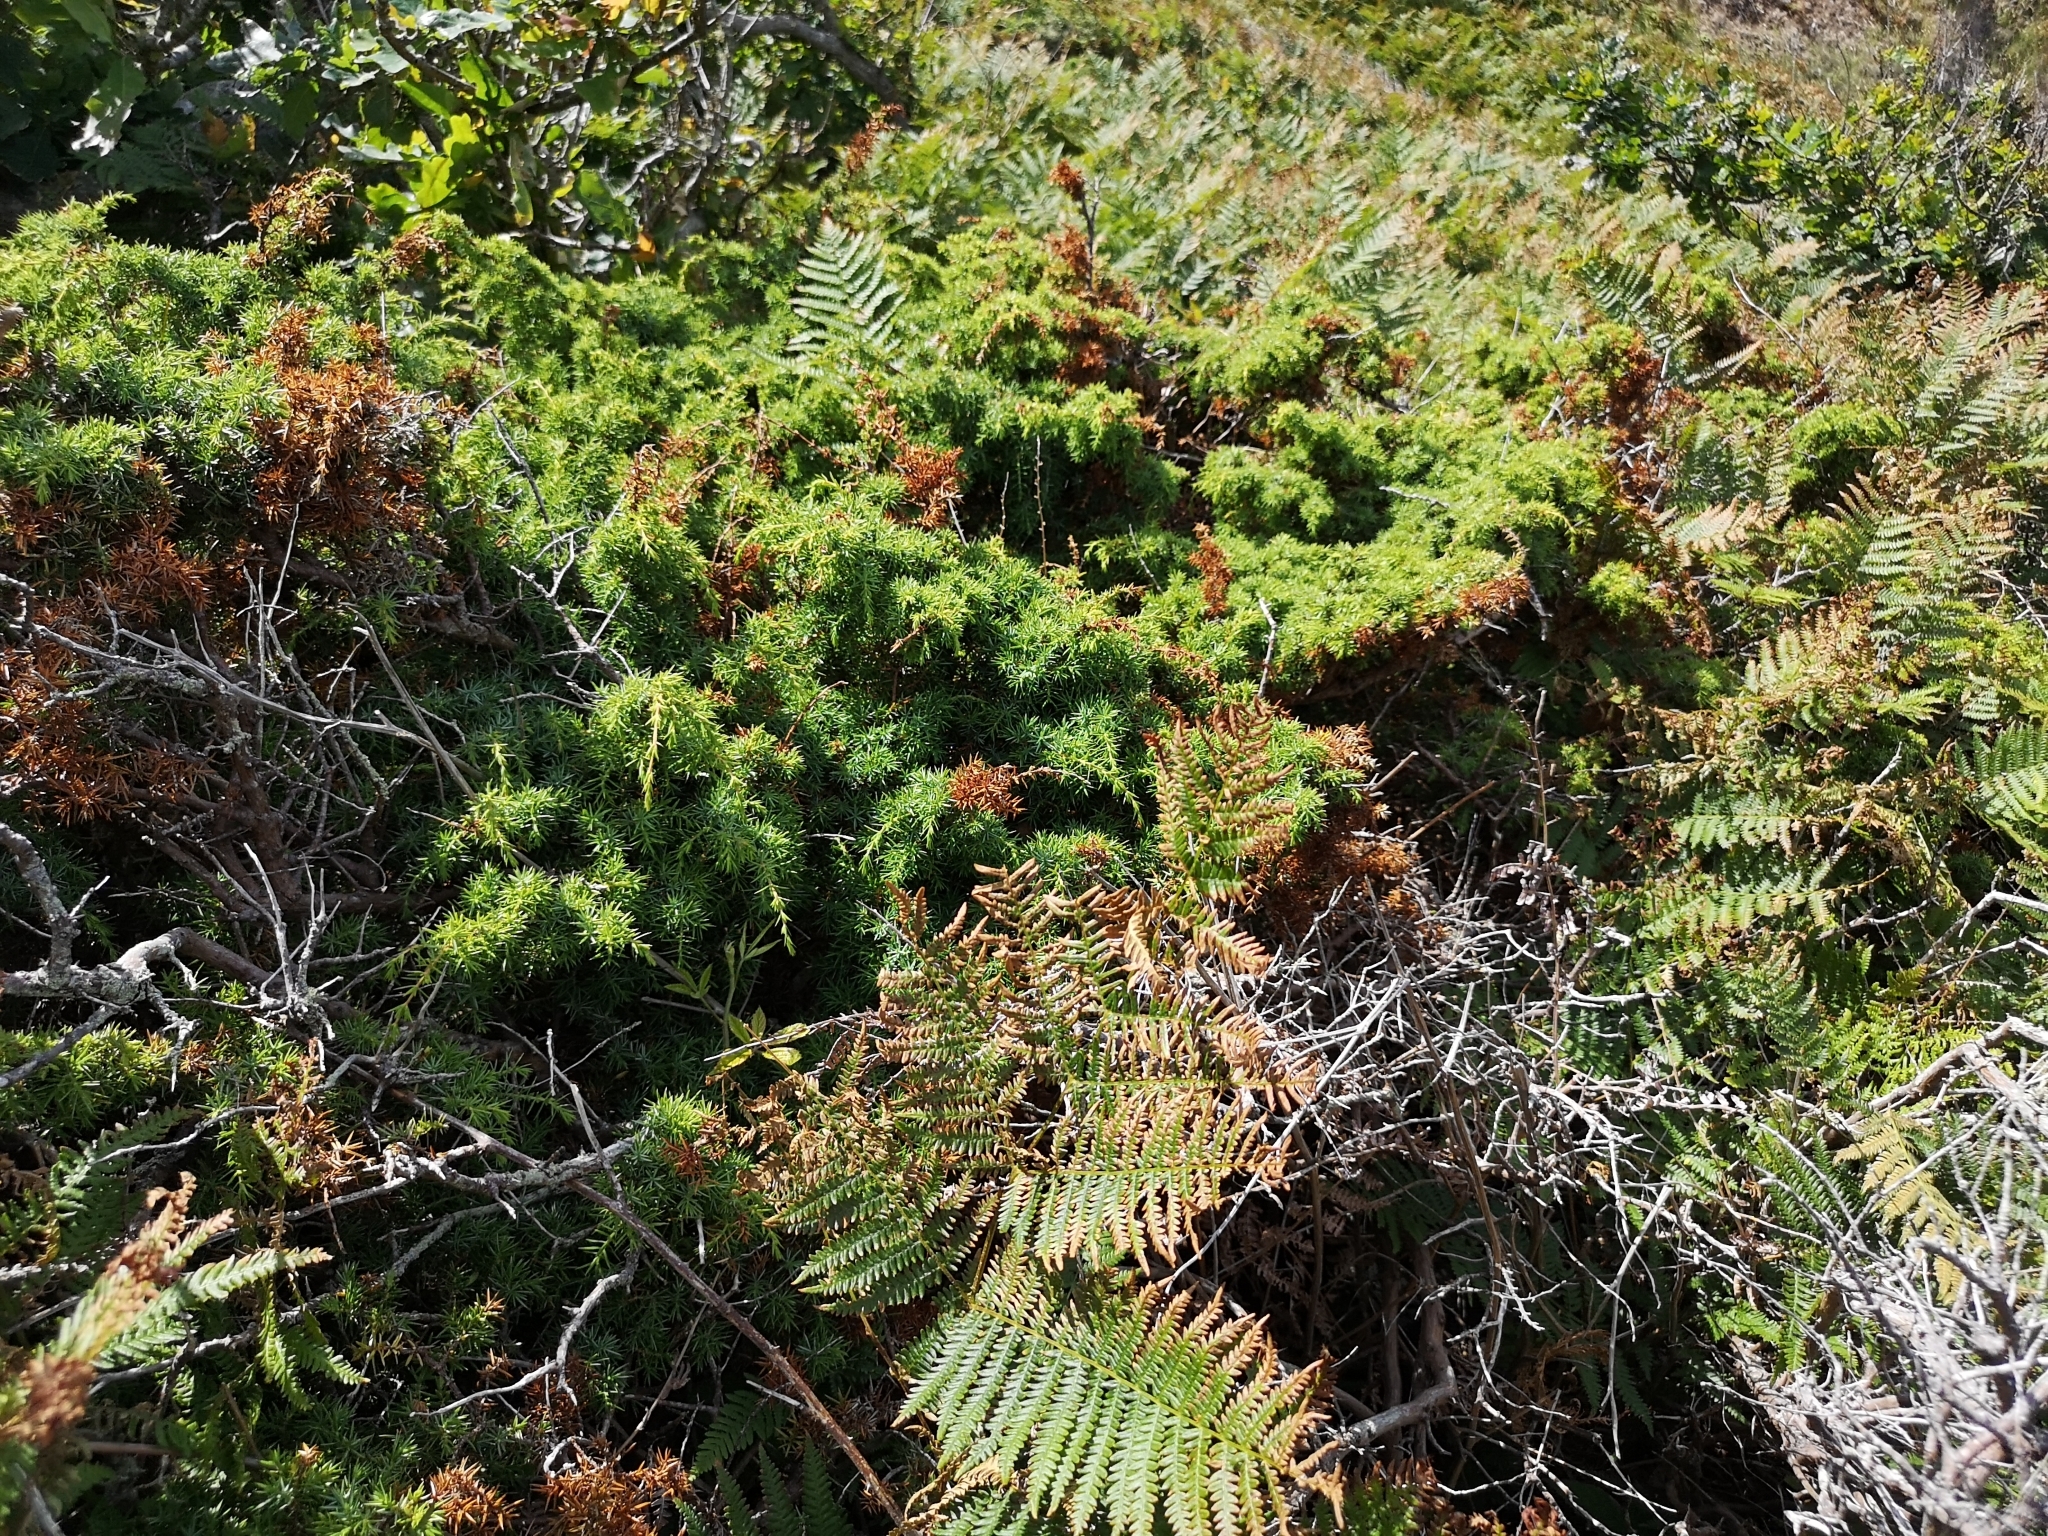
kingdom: Plantae
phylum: Tracheophyta
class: Pinopsida
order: Pinales
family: Cupressaceae
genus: Juniperus
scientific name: Juniperus communis
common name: Common juniper
